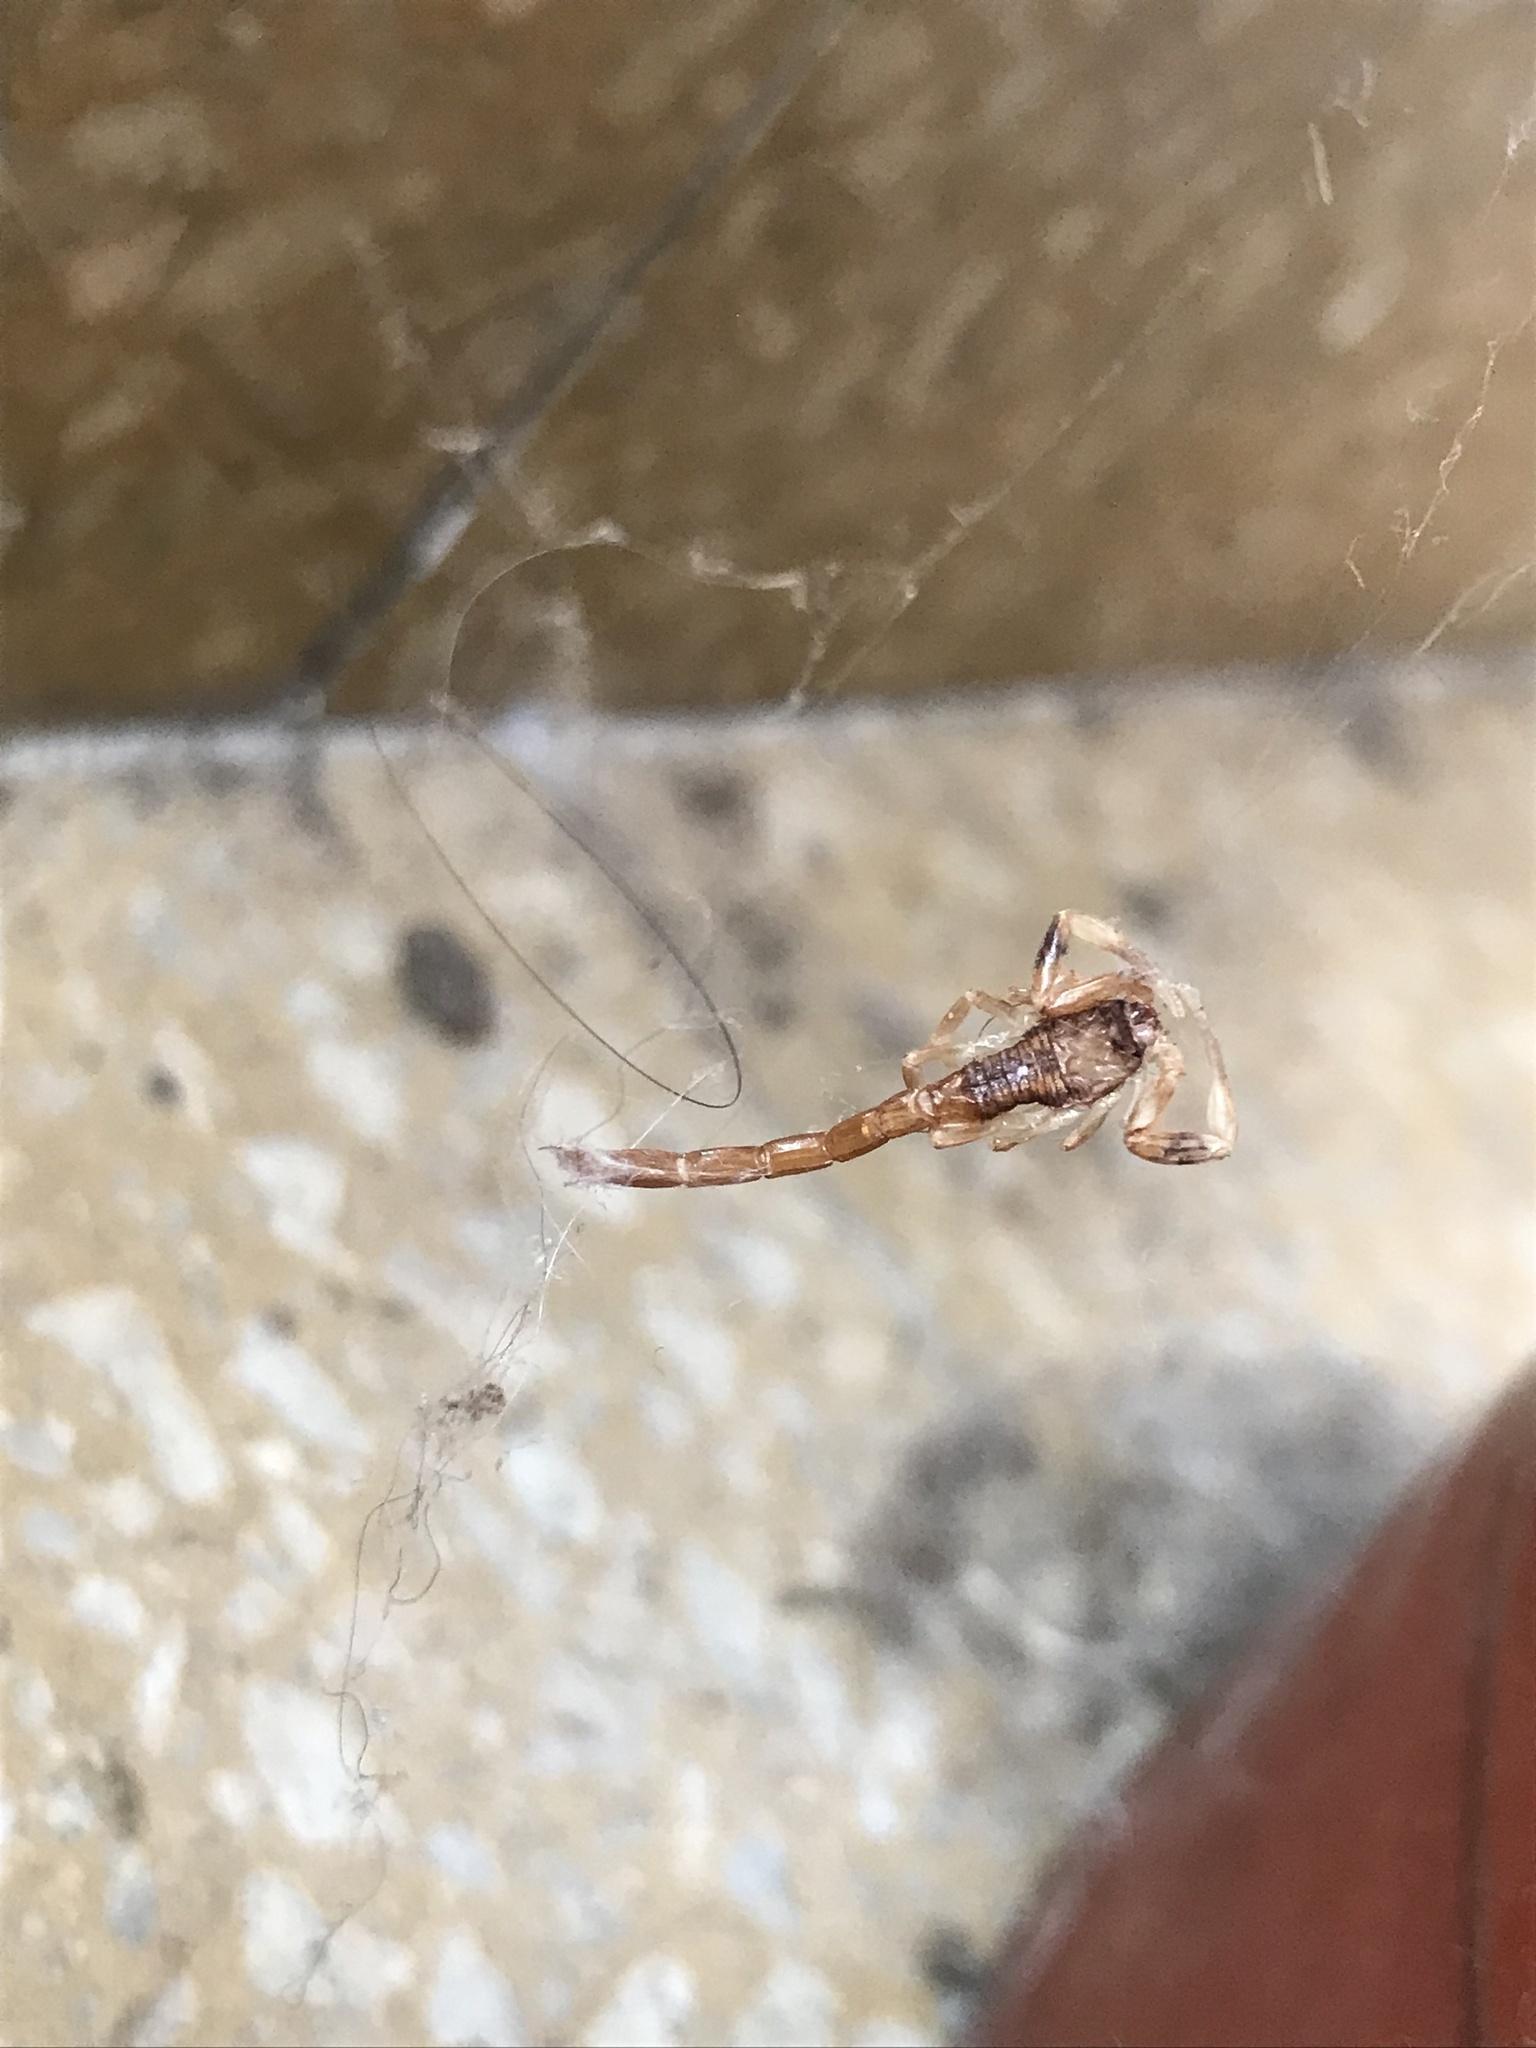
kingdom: Animalia
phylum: Arthropoda
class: Arachnida
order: Scorpiones
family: Buthidae
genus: Tityus
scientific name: Tityus carrilloi
